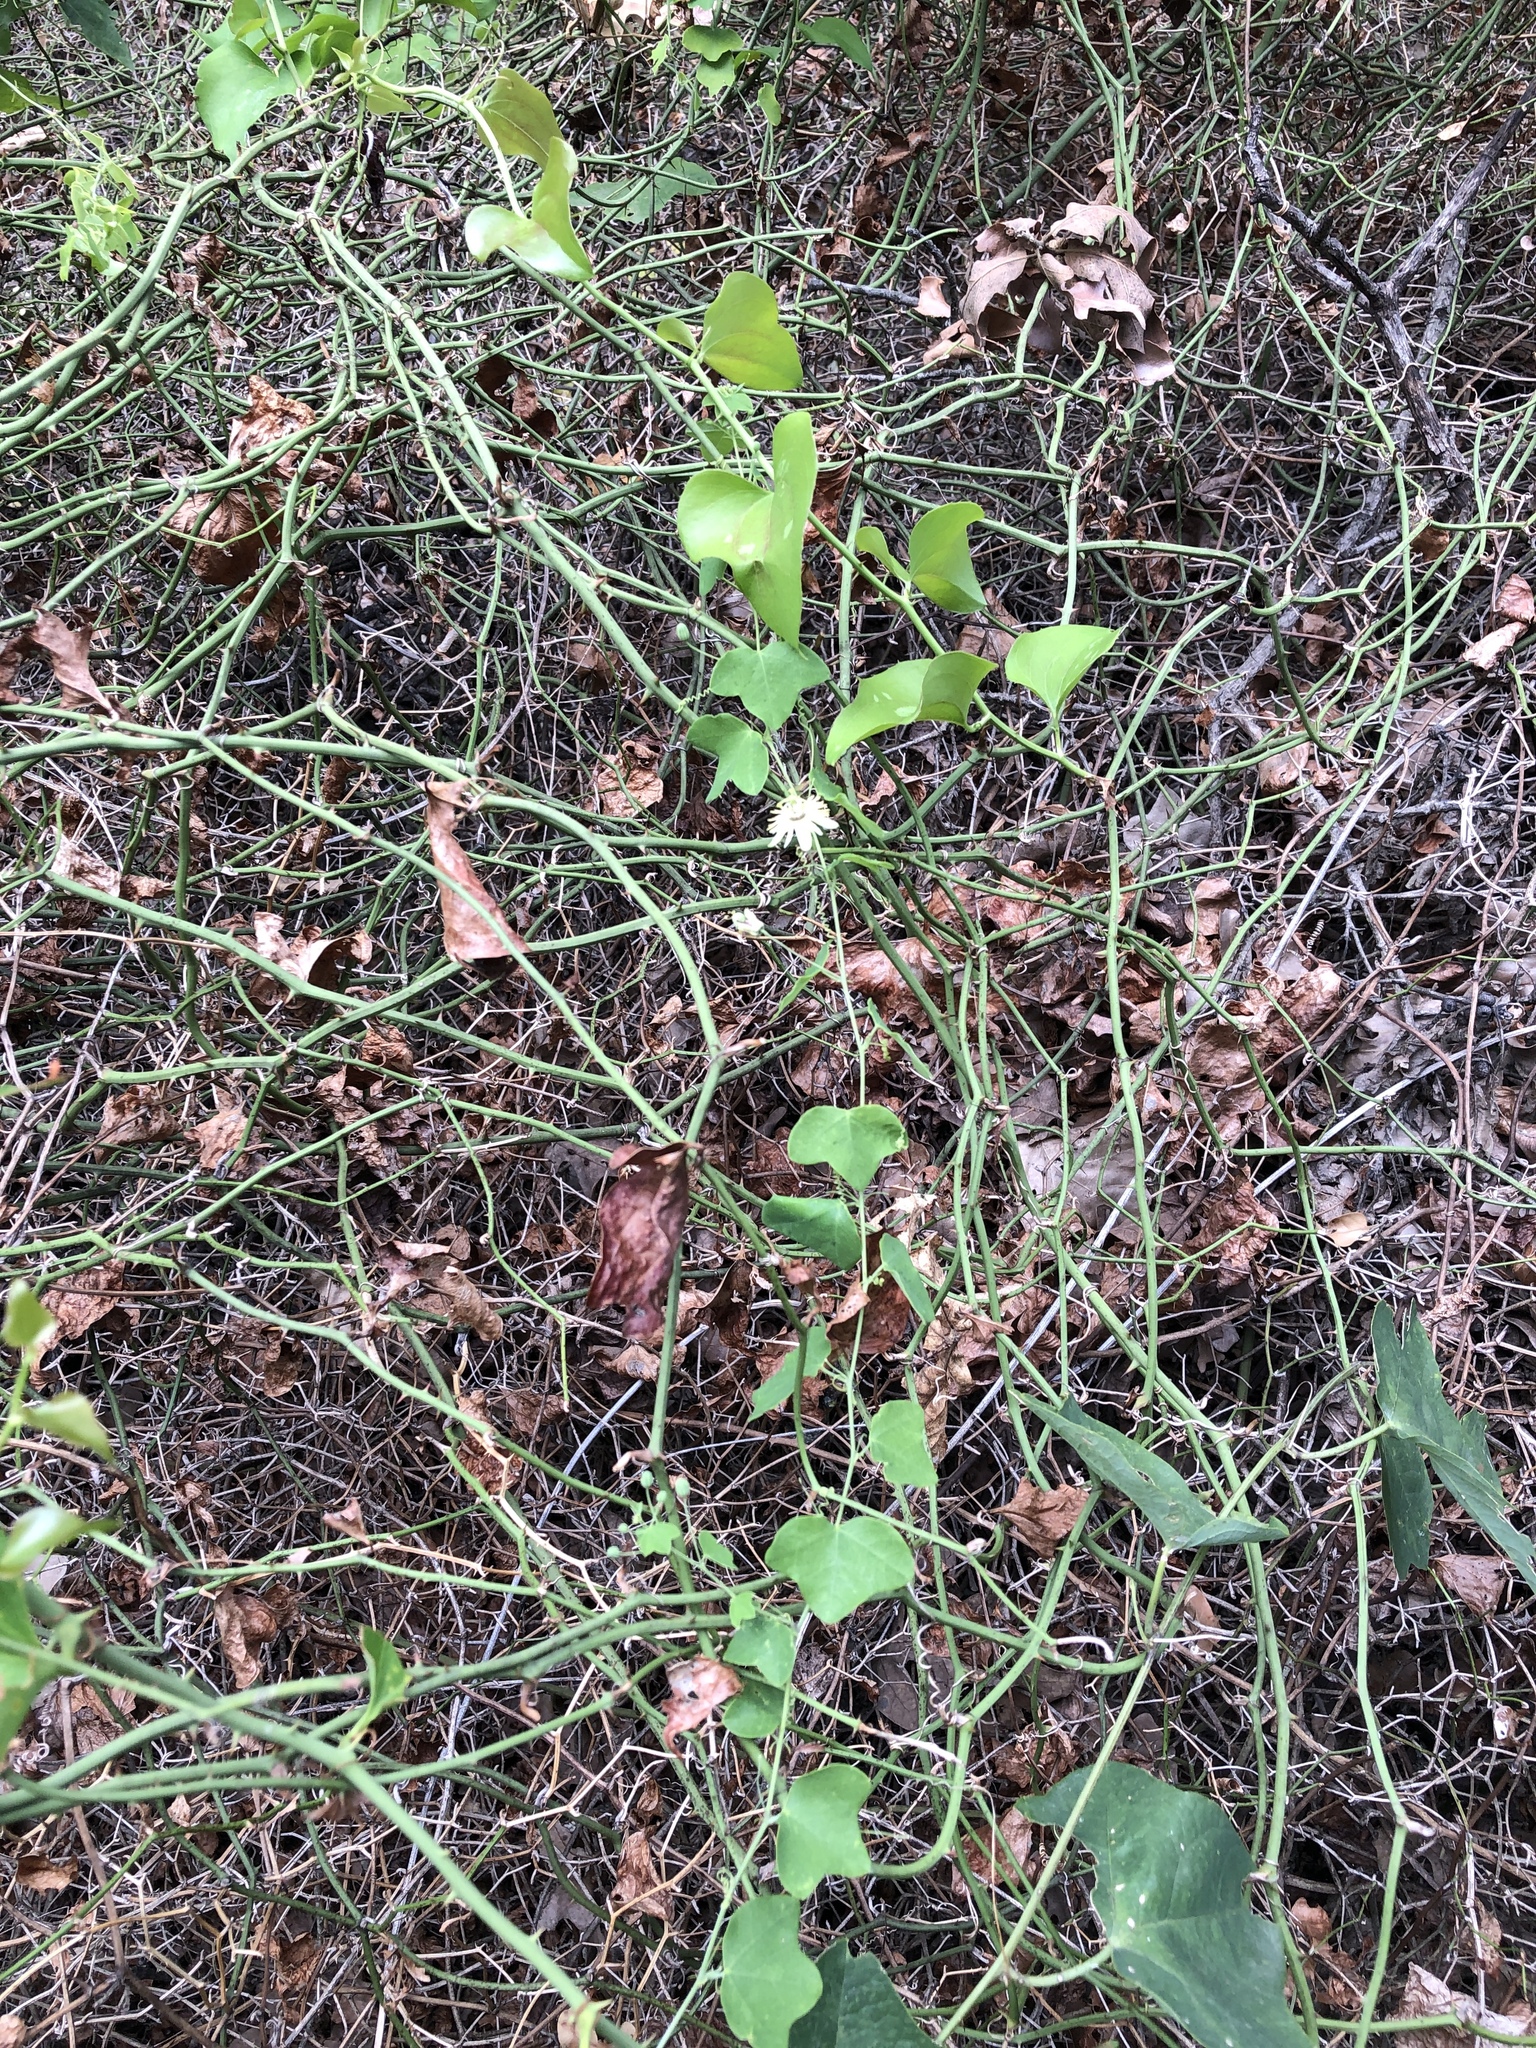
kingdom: Plantae
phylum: Tracheophyta
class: Magnoliopsida
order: Malpighiales
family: Passifloraceae
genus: Passiflora
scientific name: Passiflora lutea
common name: Yellow passionflower
